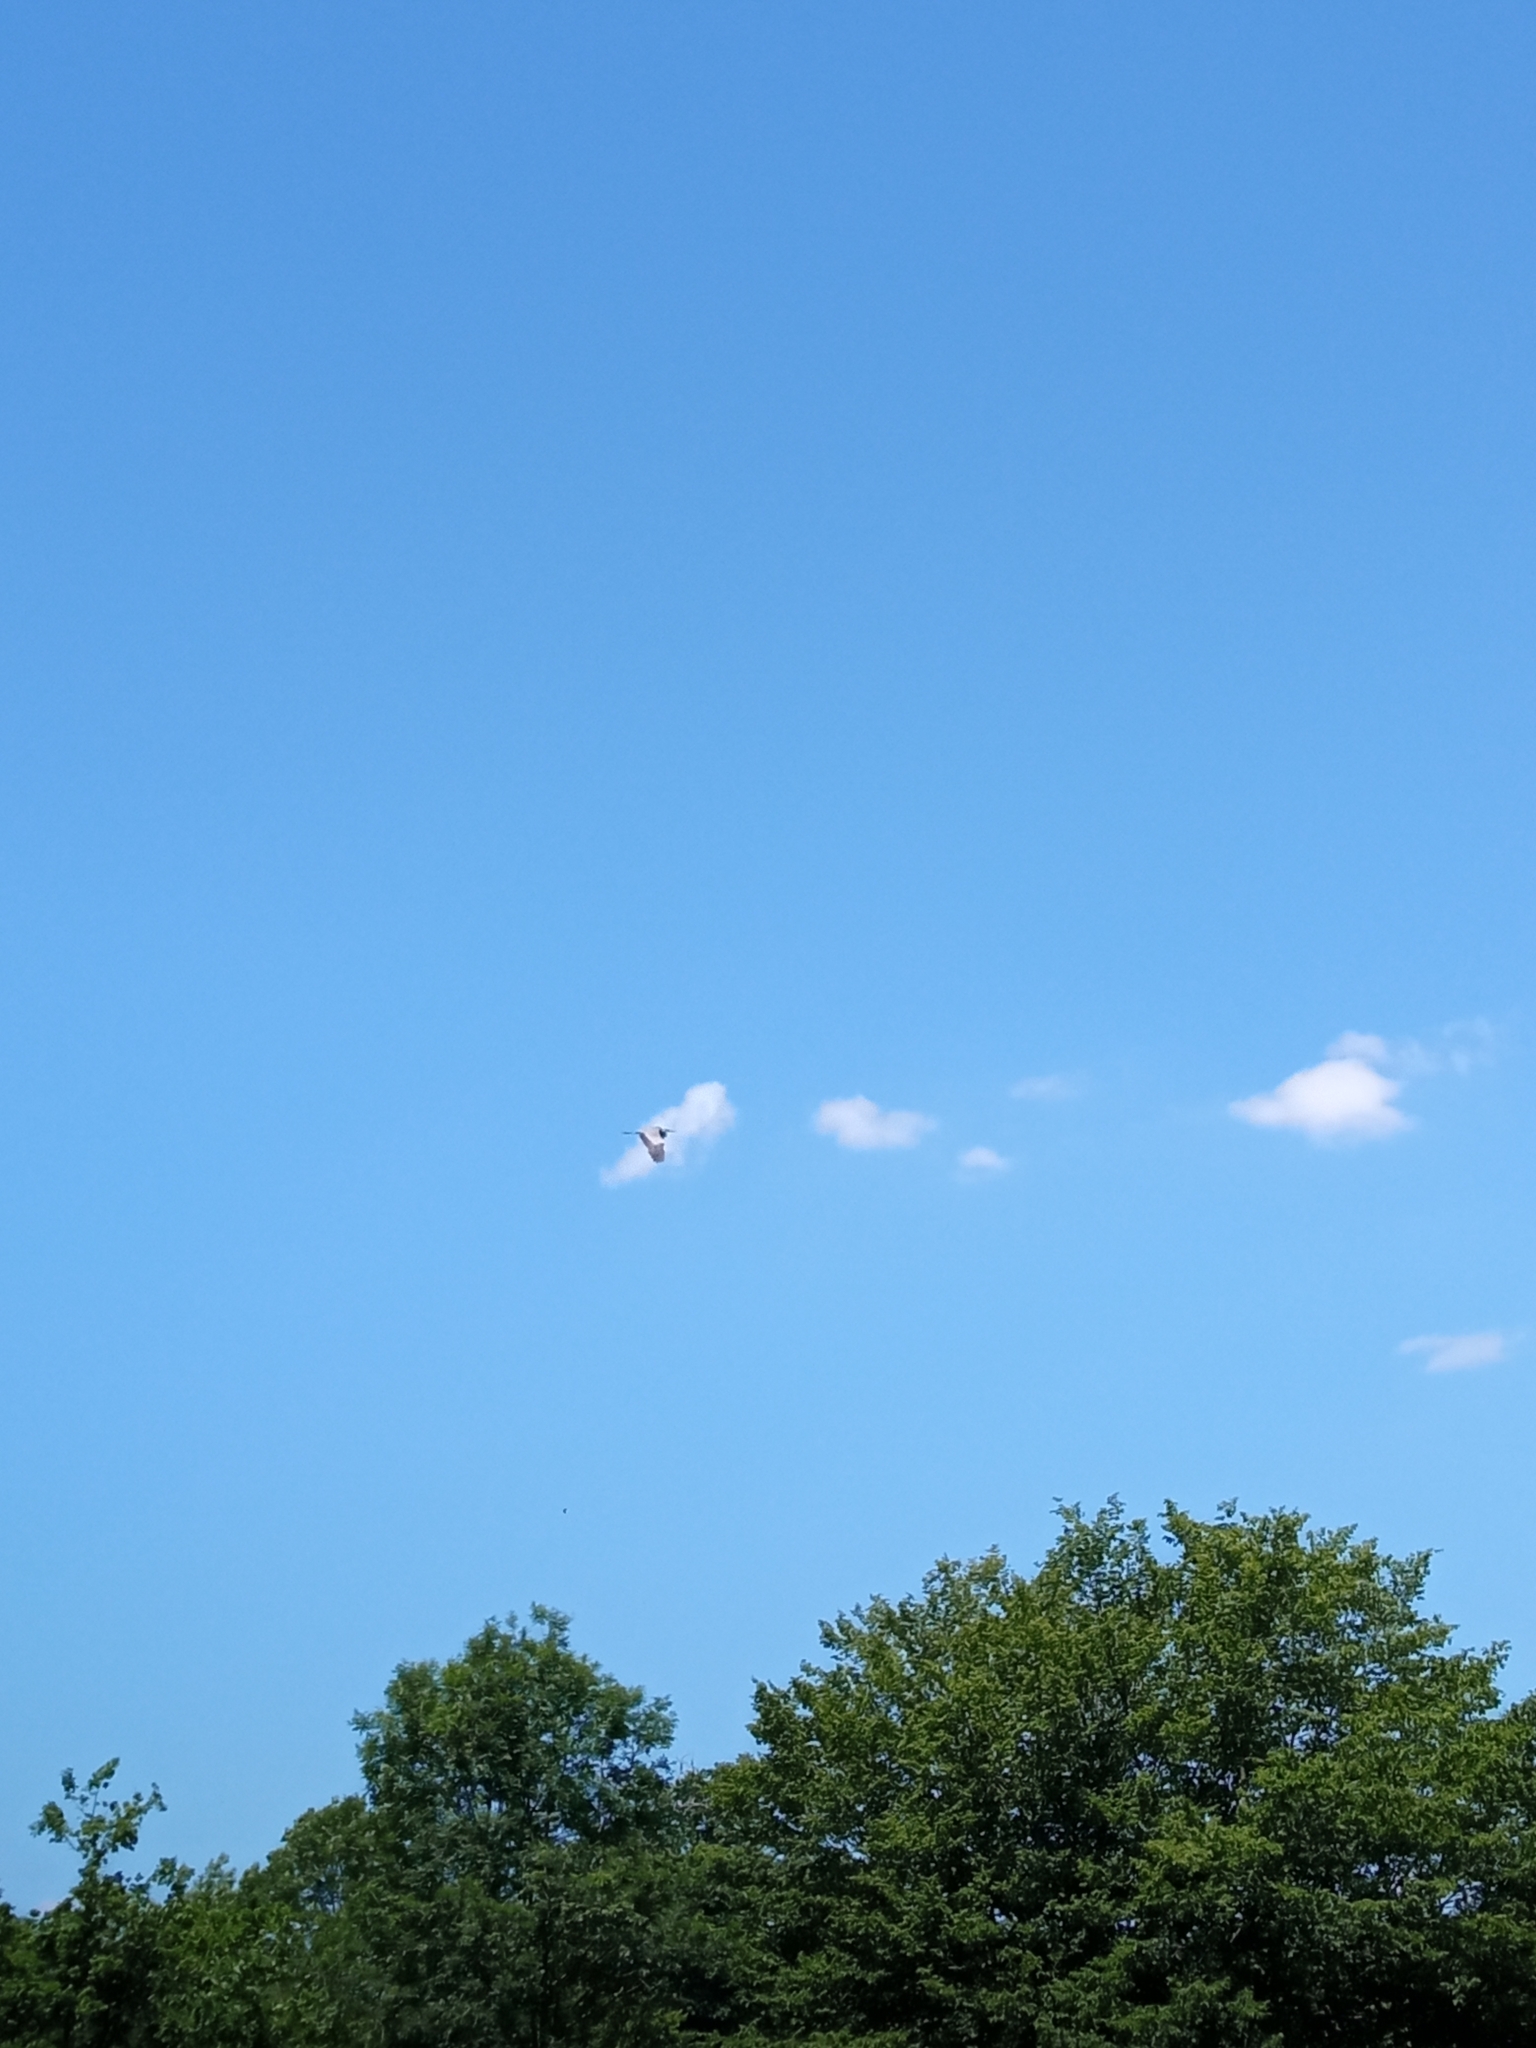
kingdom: Animalia
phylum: Chordata
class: Aves
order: Pelecaniformes
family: Ardeidae
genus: Ardea
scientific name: Ardea cinerea
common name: Grey heron
